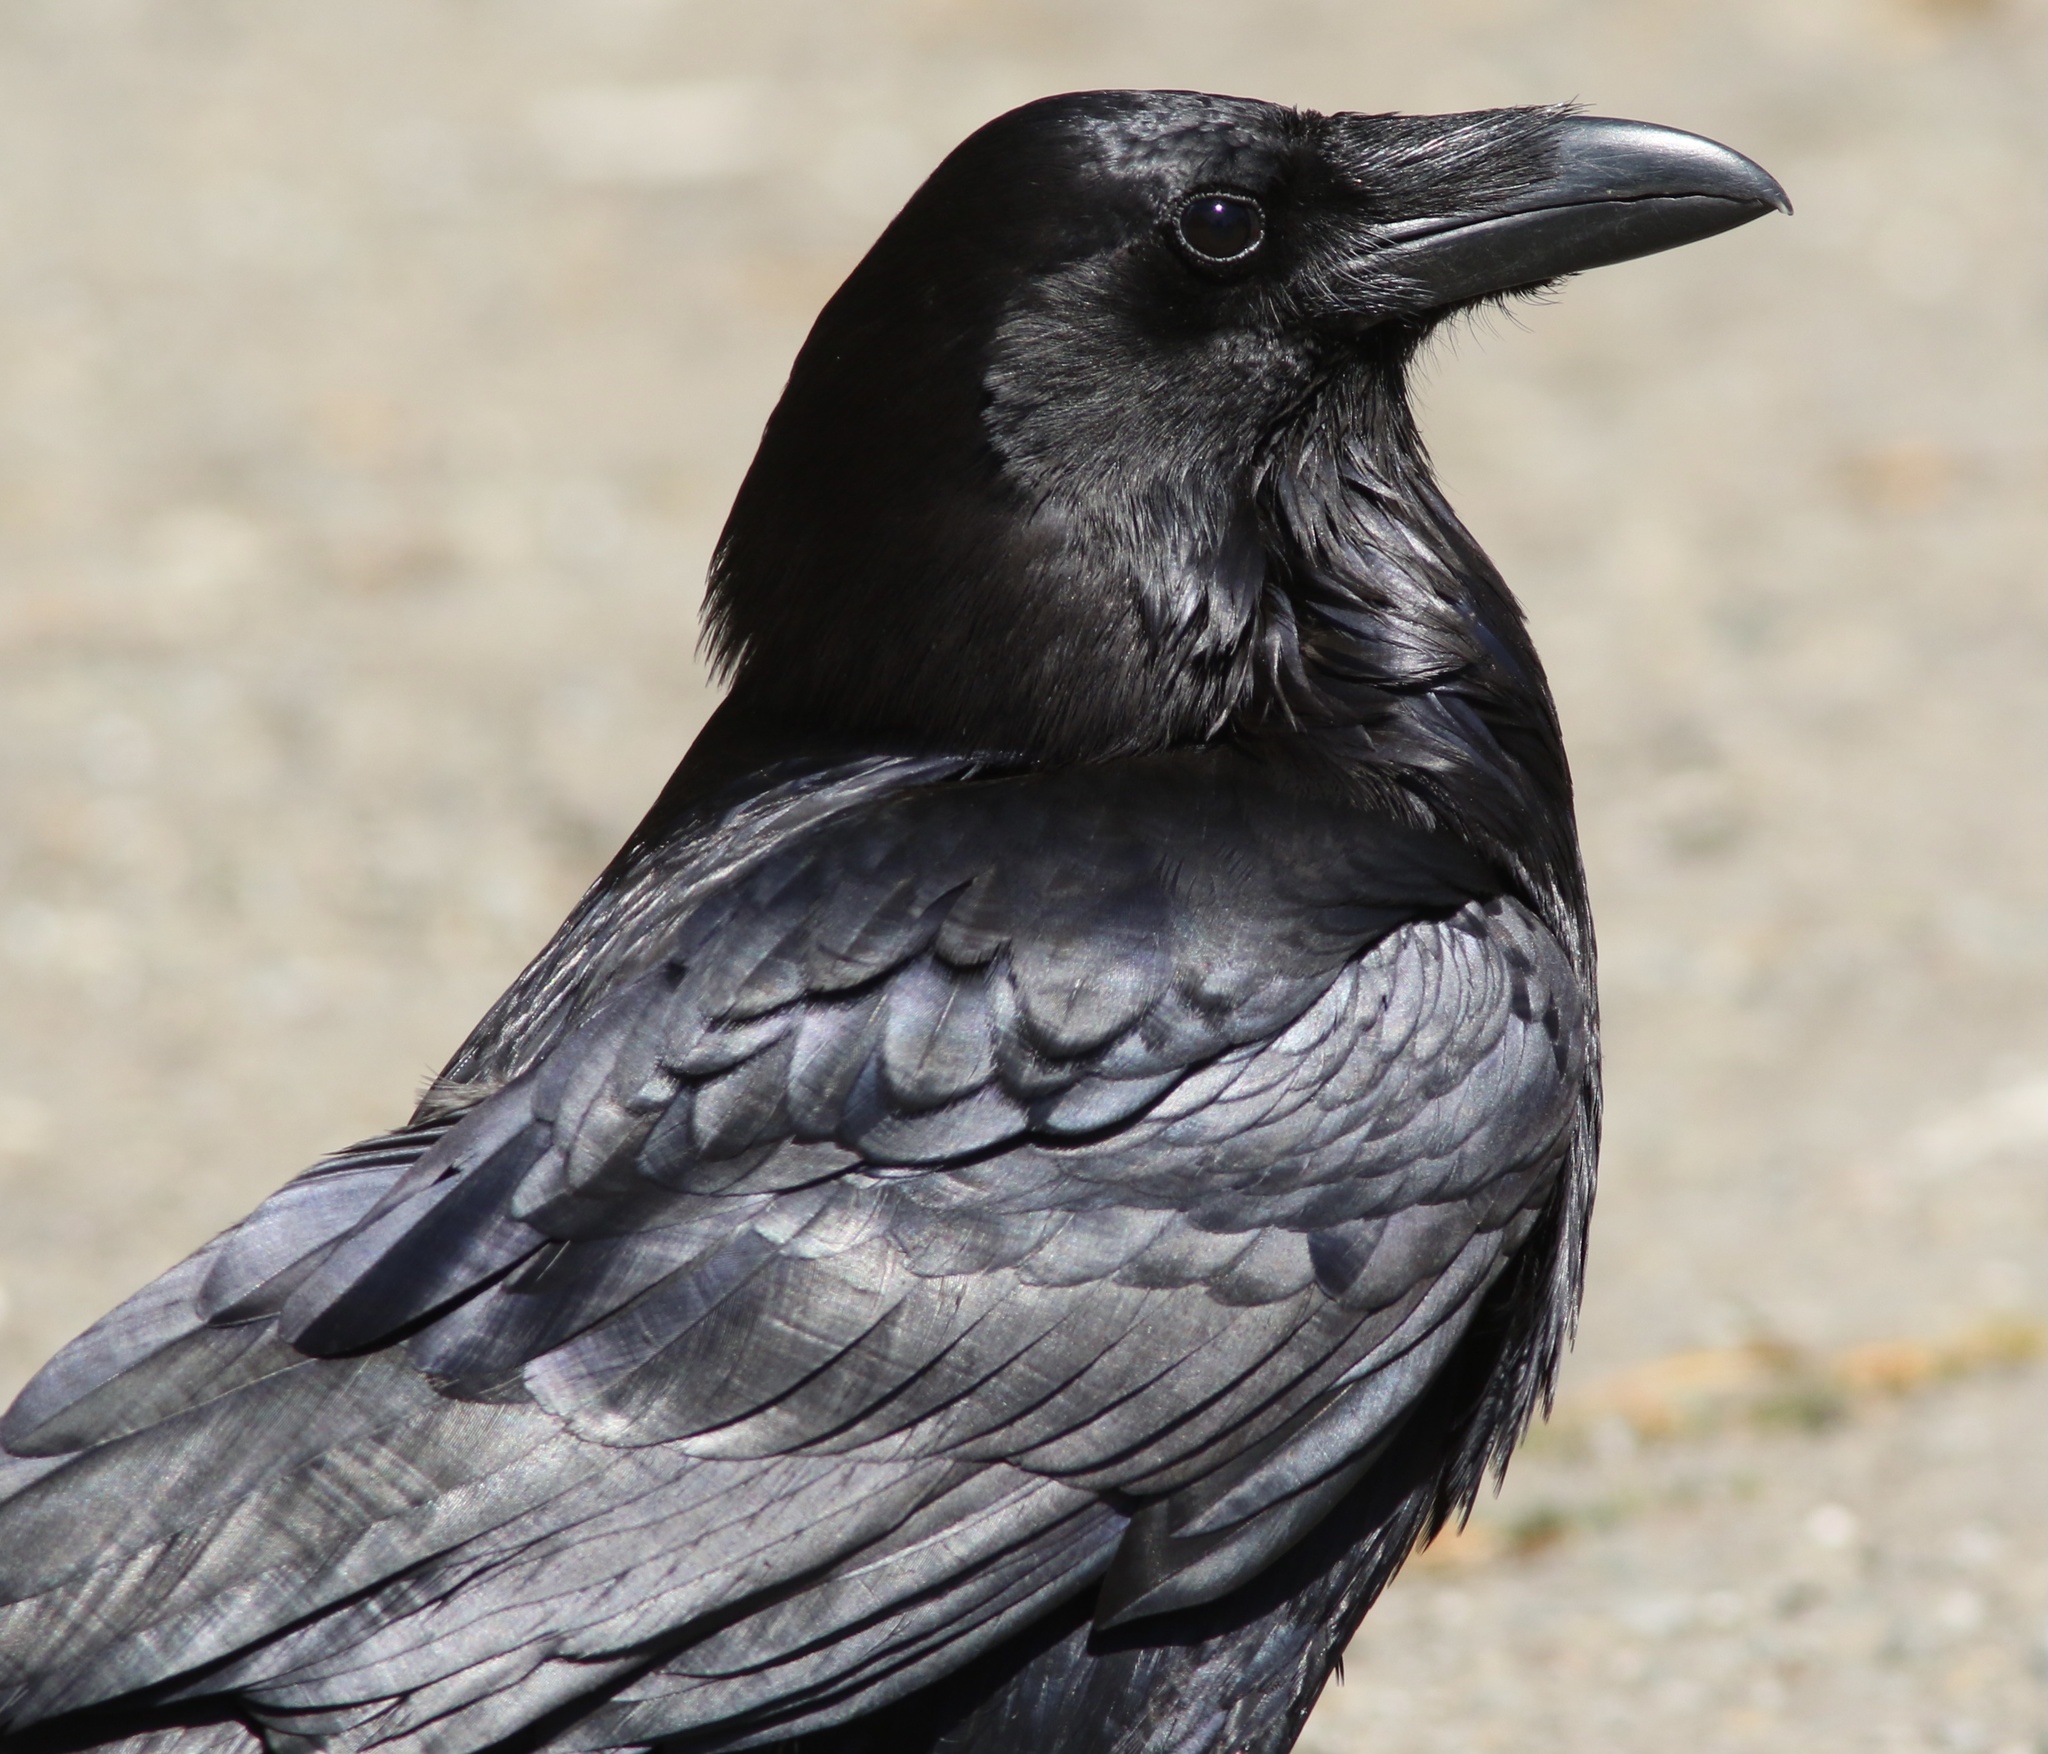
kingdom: Animalia
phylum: Chordata
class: Aves
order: Passeriformes
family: Corvidae
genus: Corvus
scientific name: Corvus corax
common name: Common raven
